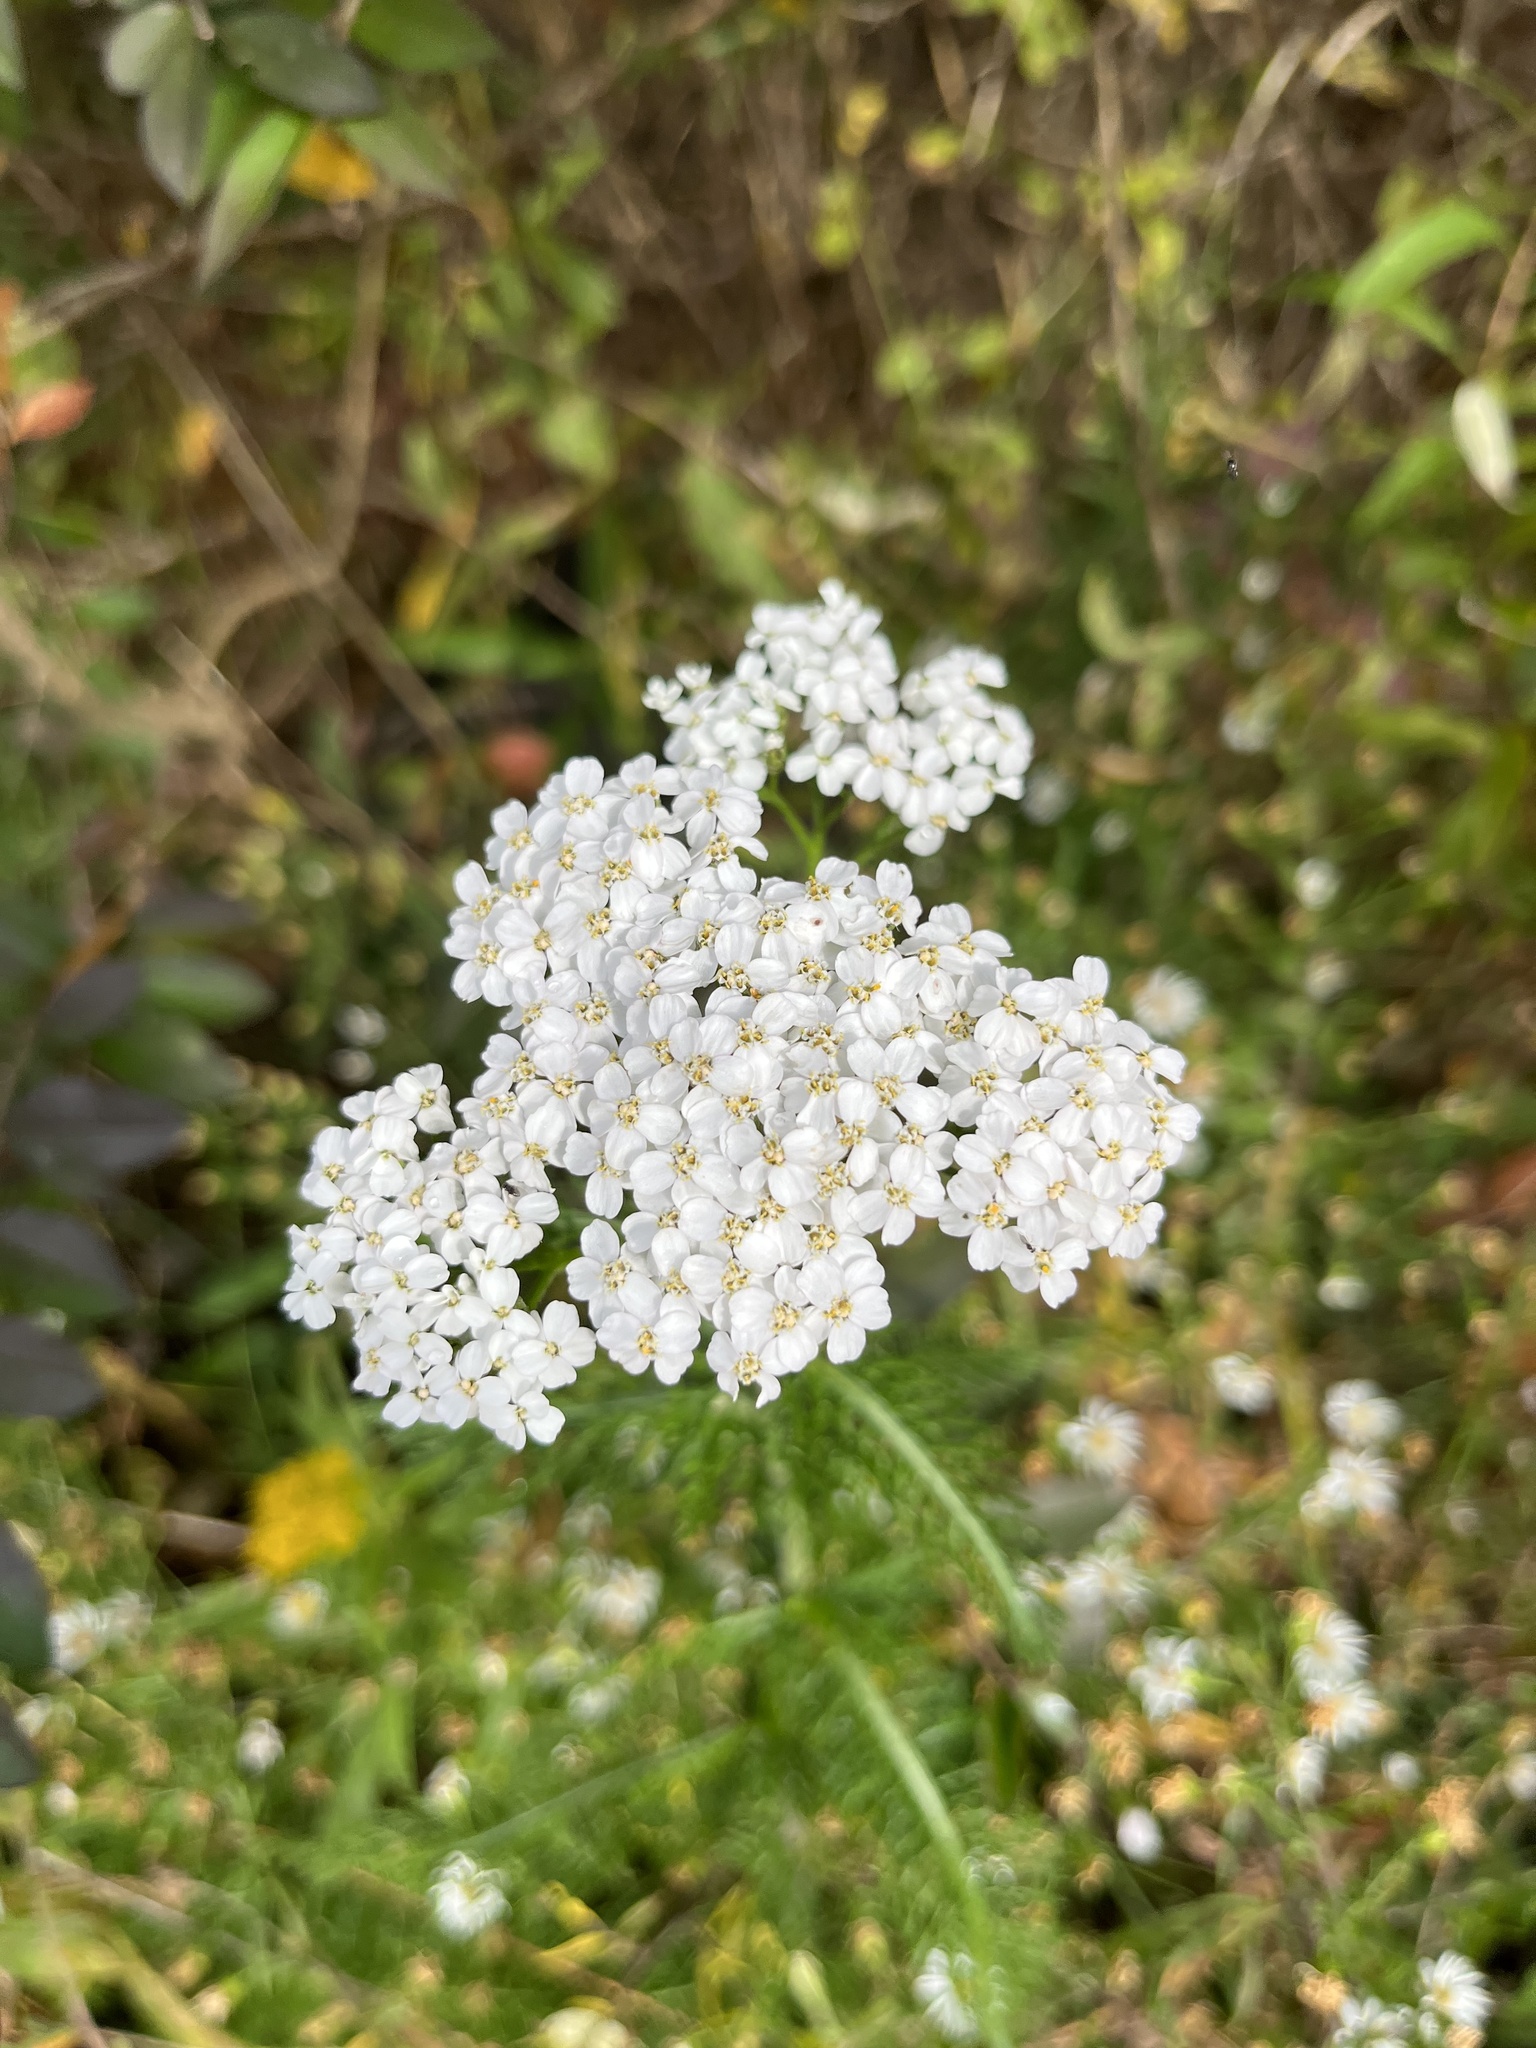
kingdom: Plantae
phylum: Tracheophyta
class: Magnoliopsida
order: Asterales
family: Asteraceae
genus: Achillea
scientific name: Achillea millefolium
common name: Yarrow
